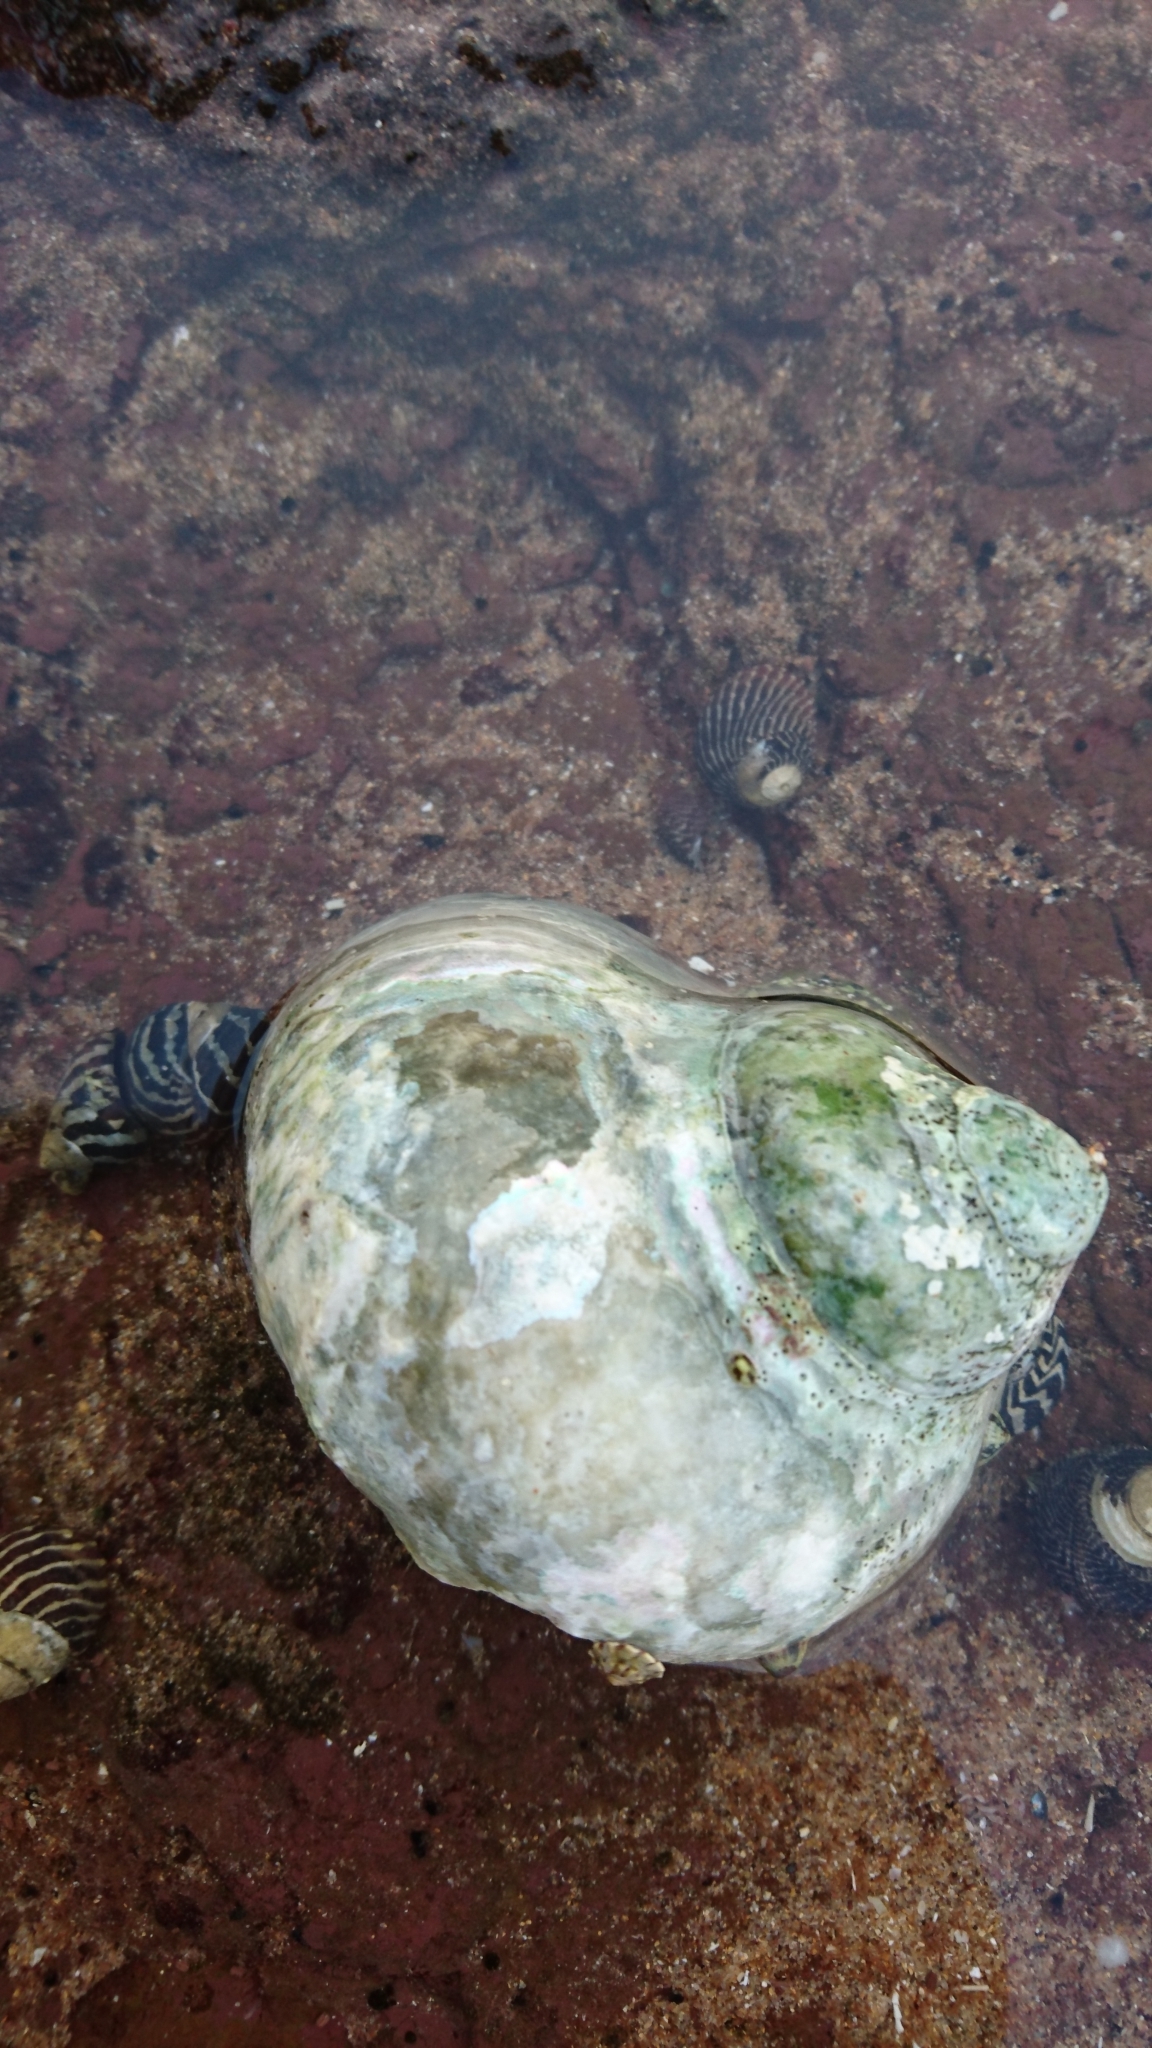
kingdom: Animalia
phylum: Mollusca
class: Gastropoda
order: Trochida
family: Turbinidae
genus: Turbo
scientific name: Turbo militaris
